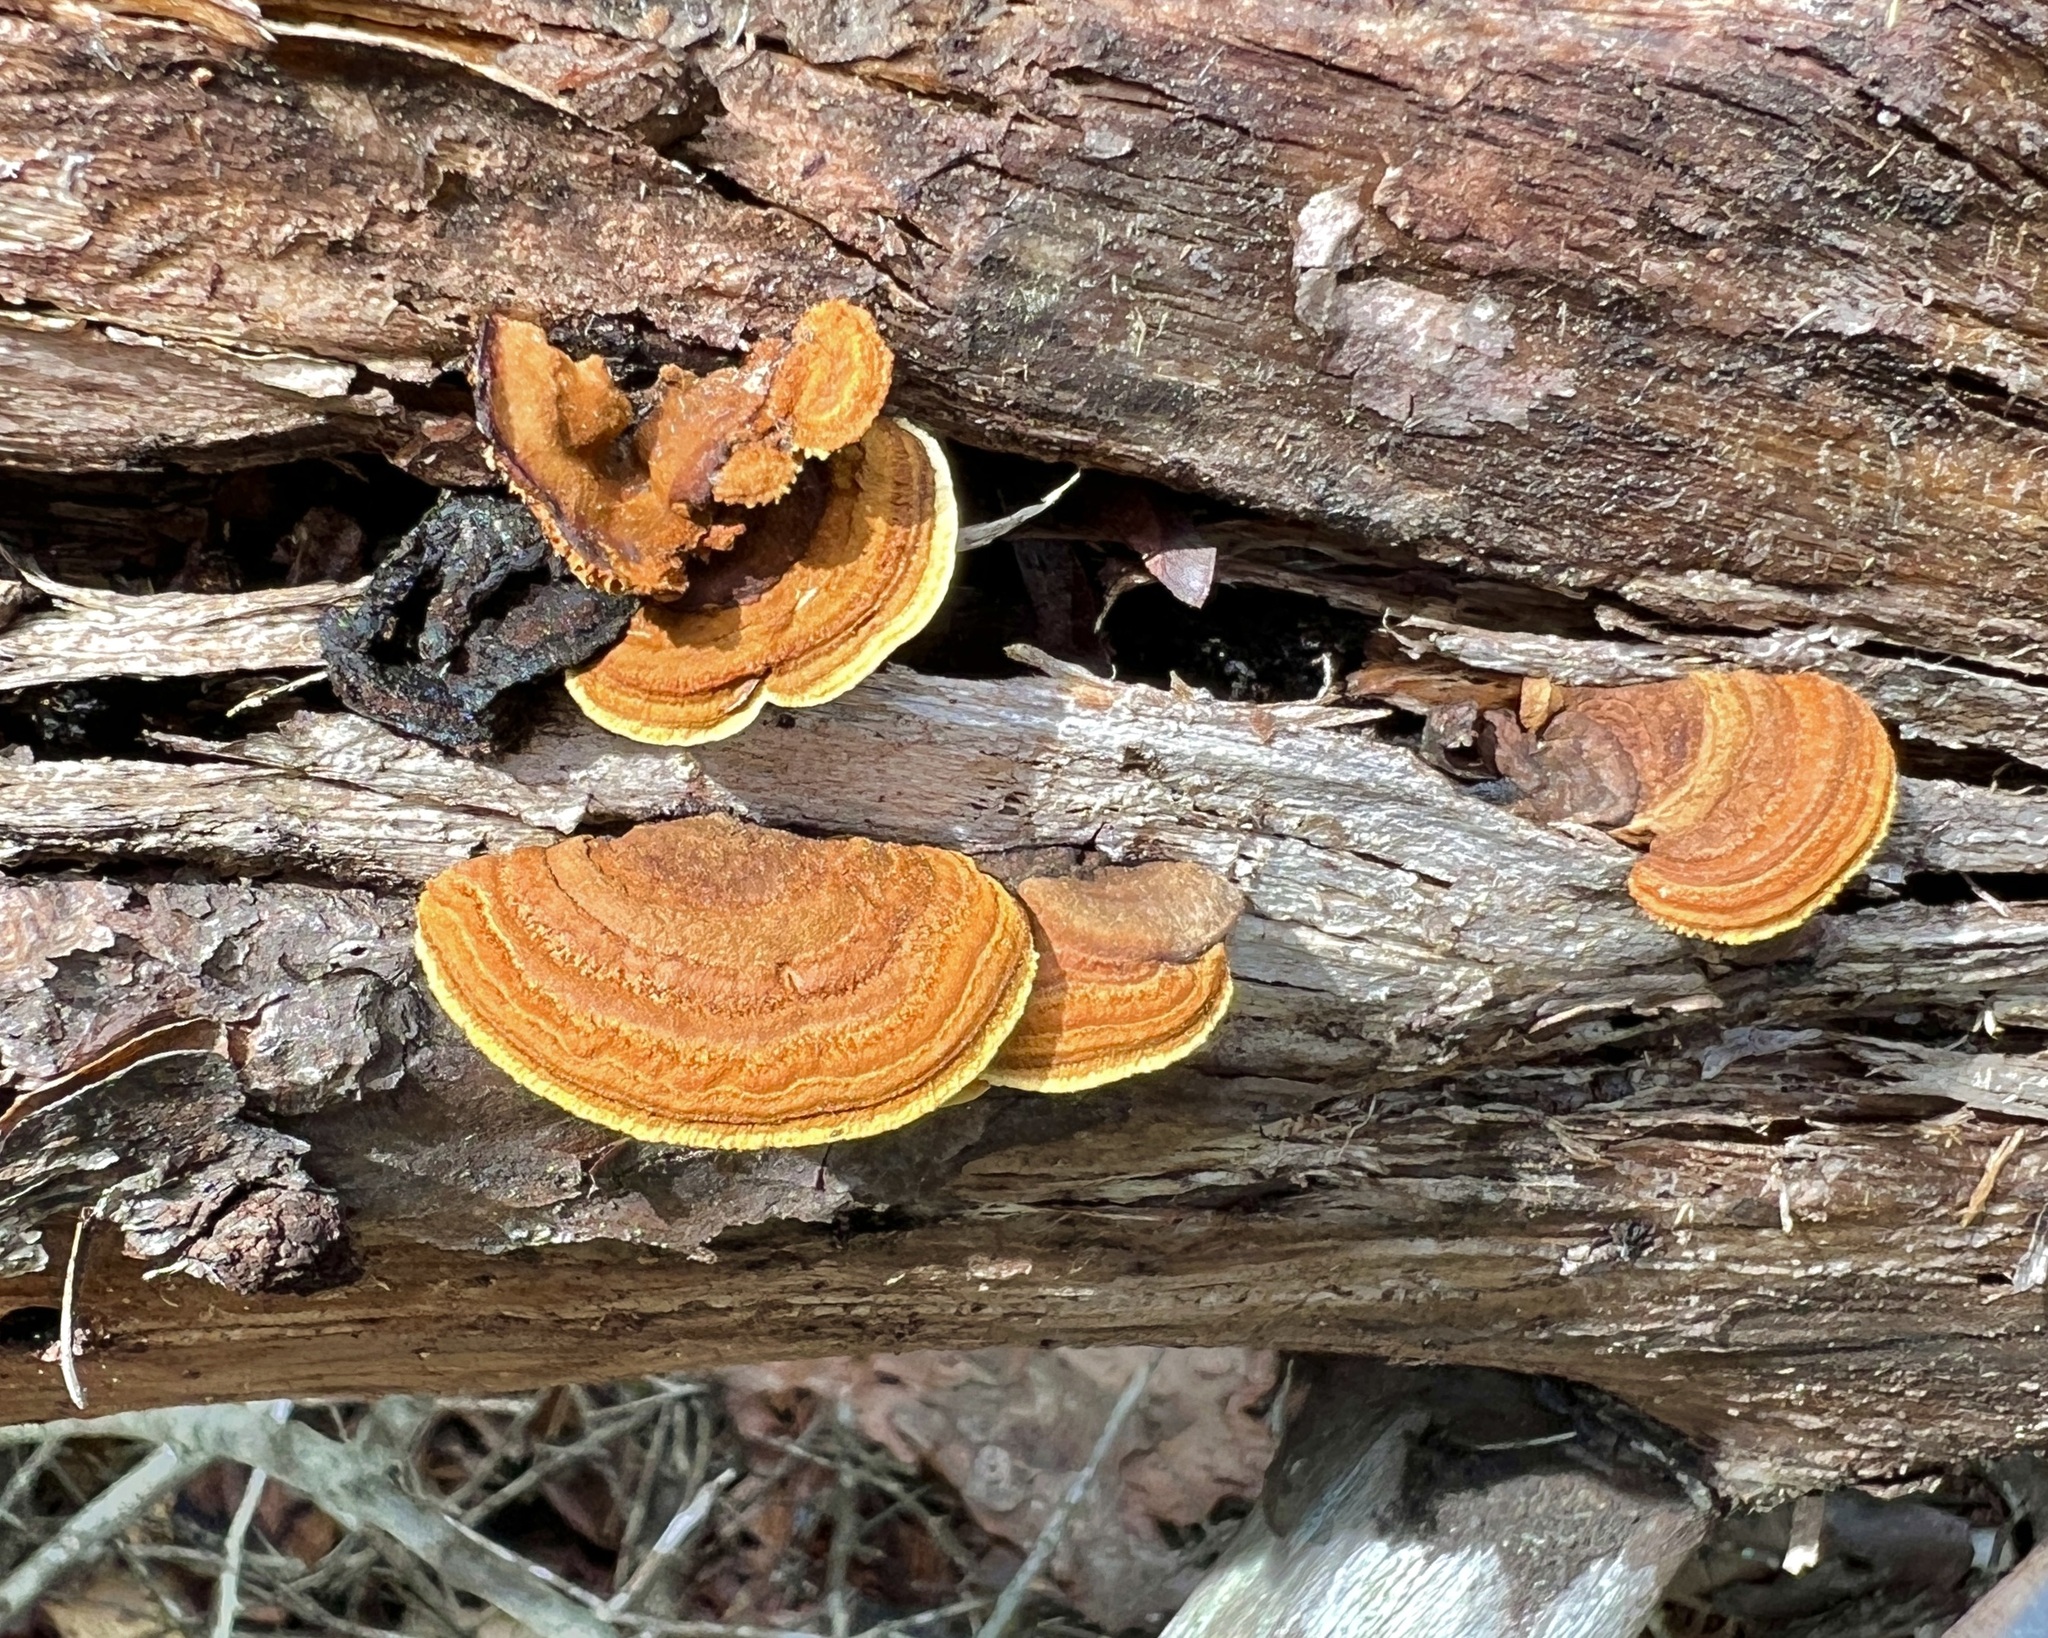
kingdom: Fungi
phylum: Basidiomycota
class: Agaricomycetes
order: Gloeophyllales
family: Gloeophyllaceae
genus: Gloeophyllum
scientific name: Gloeophyllum sepiarium
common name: Conifer mazegill
